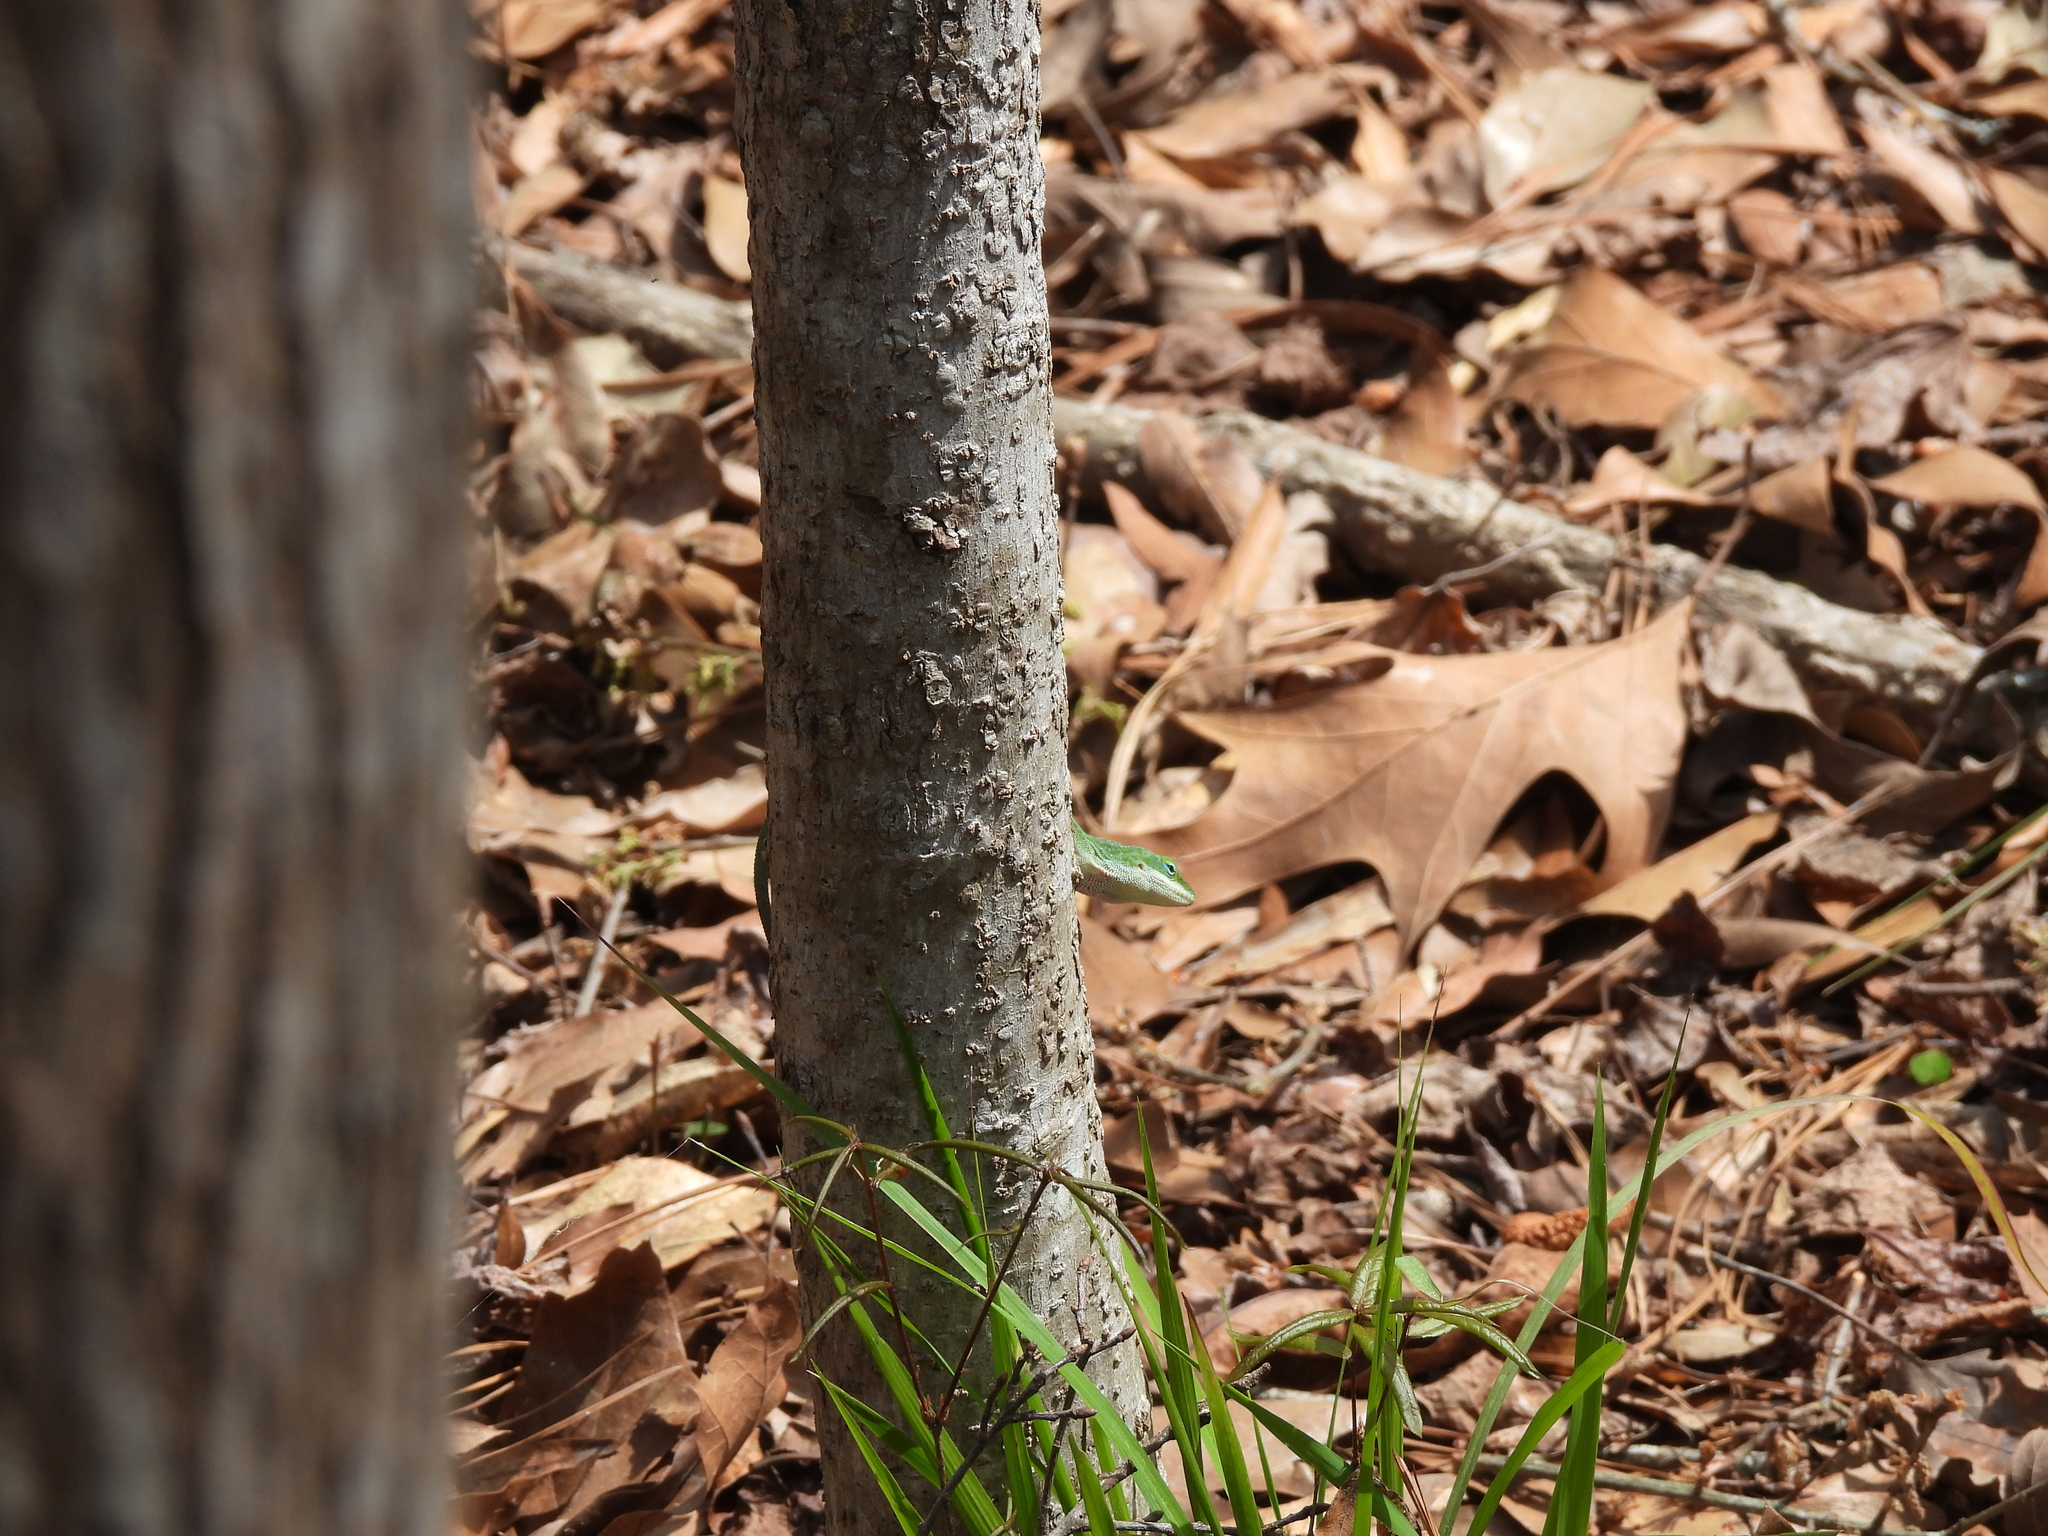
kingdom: Animalia
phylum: Chordata
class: Squamata
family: Dactyloidae
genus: Anolis
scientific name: Anolis carolinensis
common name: Green anole
